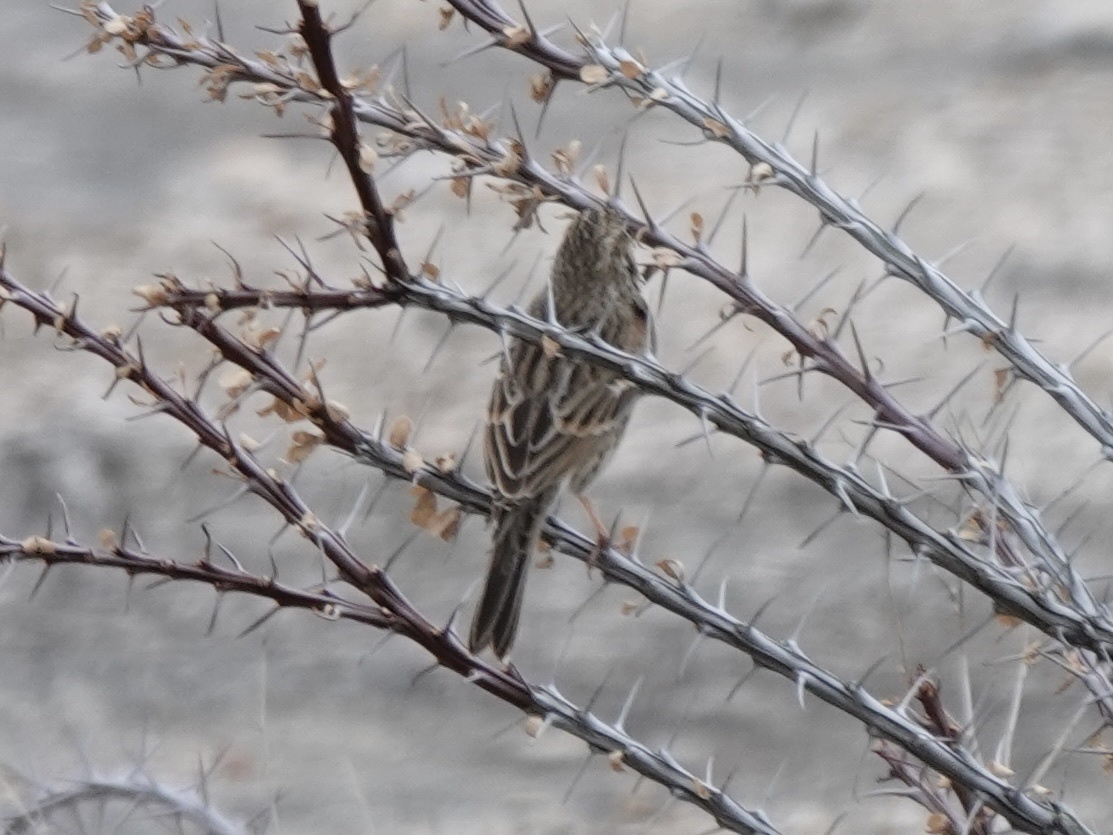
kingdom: Animalia
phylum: Chordata
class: Aves
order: Passeriformes
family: Passerellidae
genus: Pooecetes
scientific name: Pooecetes gramineus
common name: Vesper sparrow
